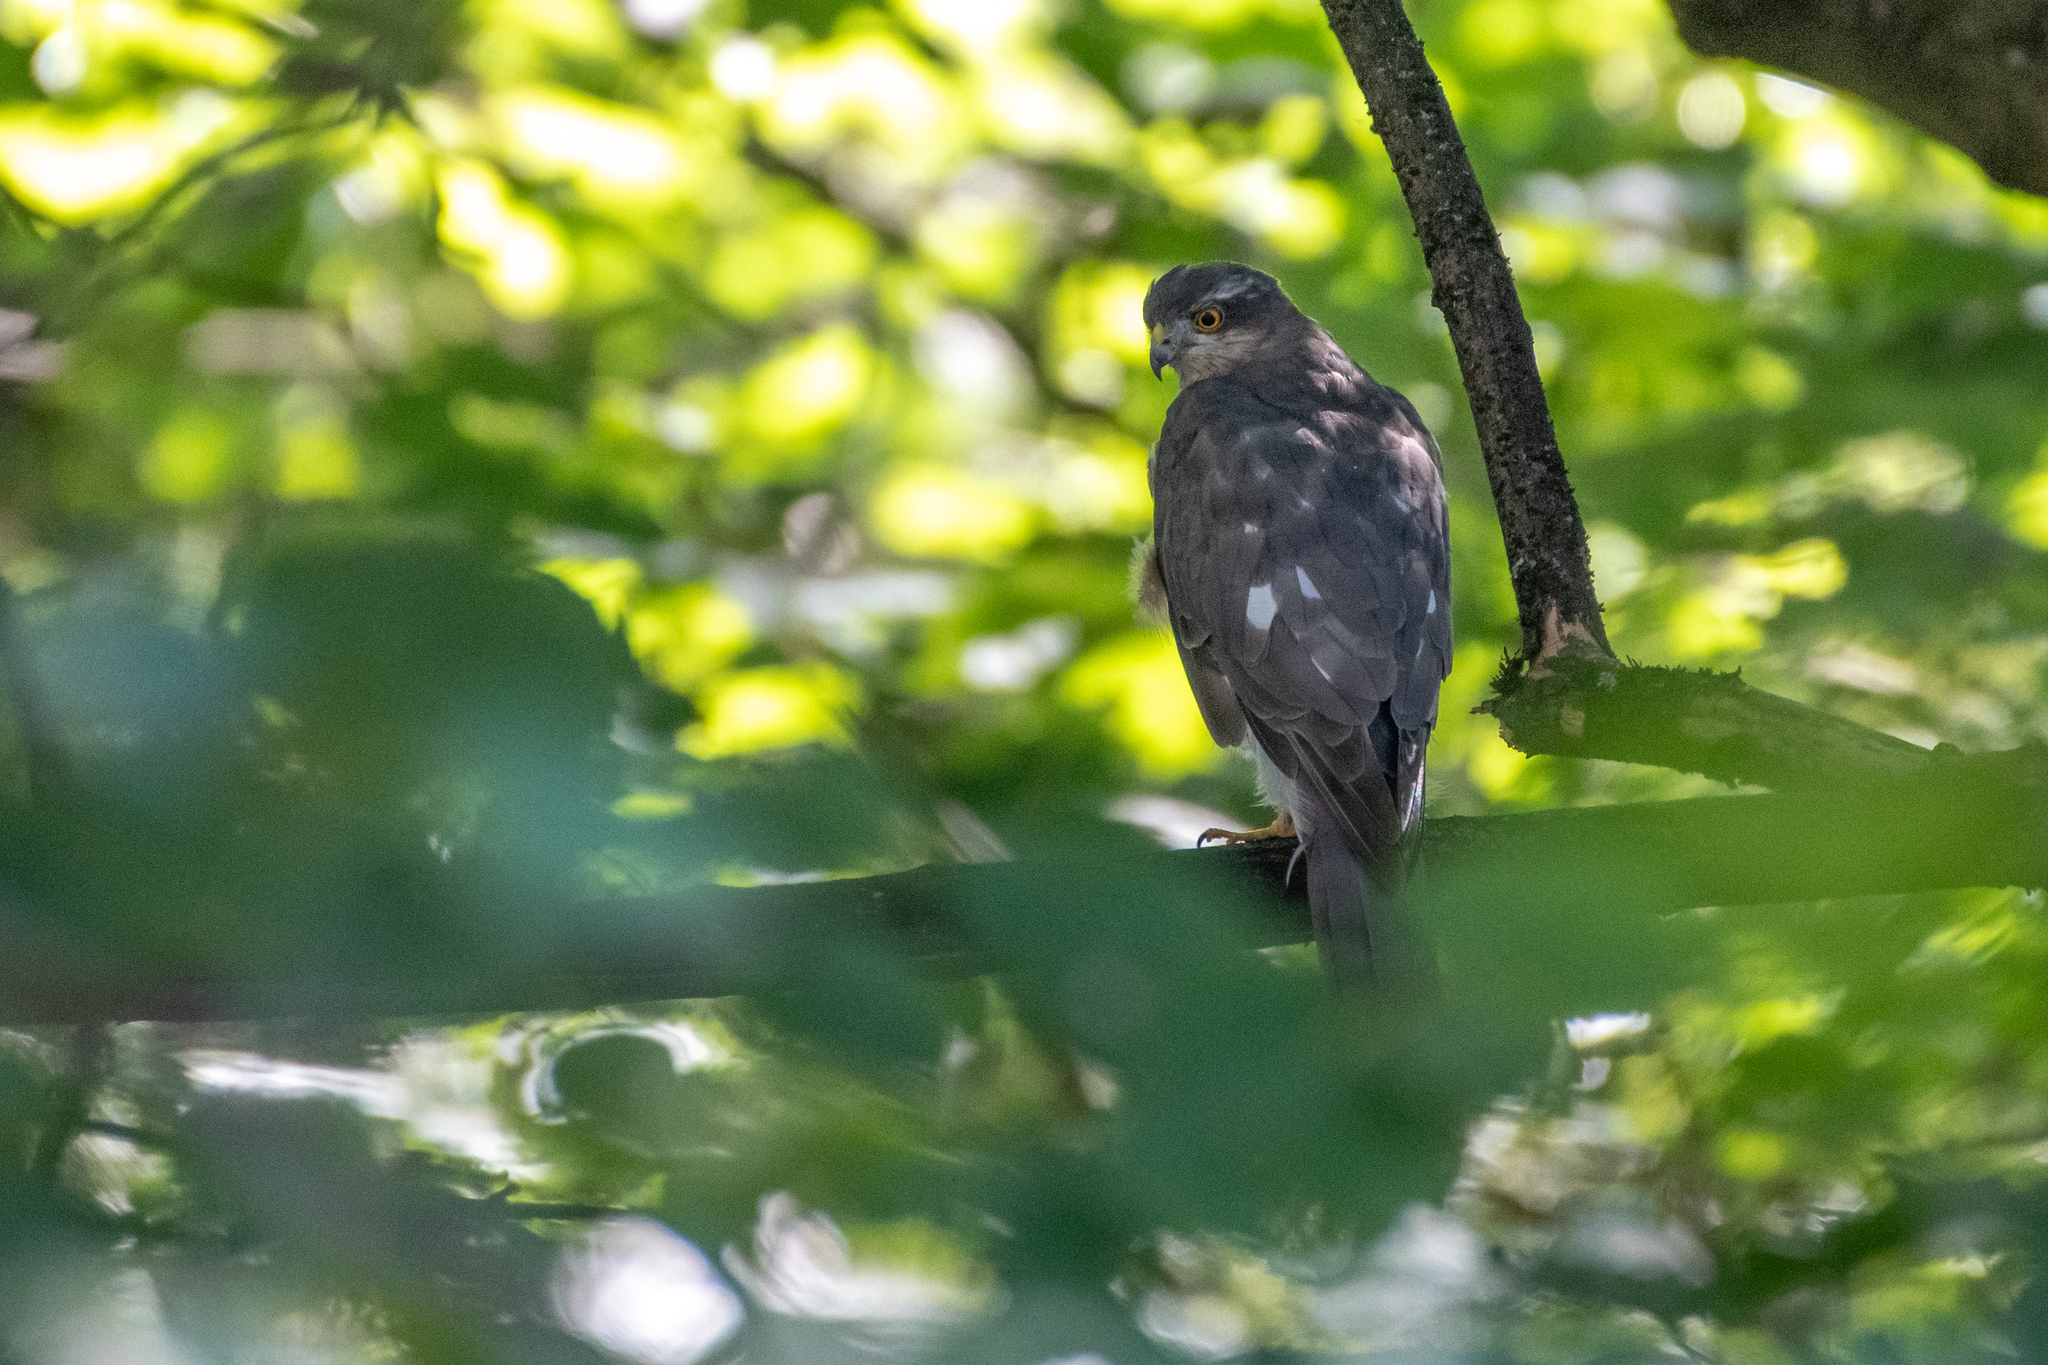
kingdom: Animalia
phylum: Chordata
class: Aves
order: Accipitriformes
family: Accipitridae
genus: Accipiter
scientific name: Accipiter nisus
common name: Eurasian sparrowhawk
